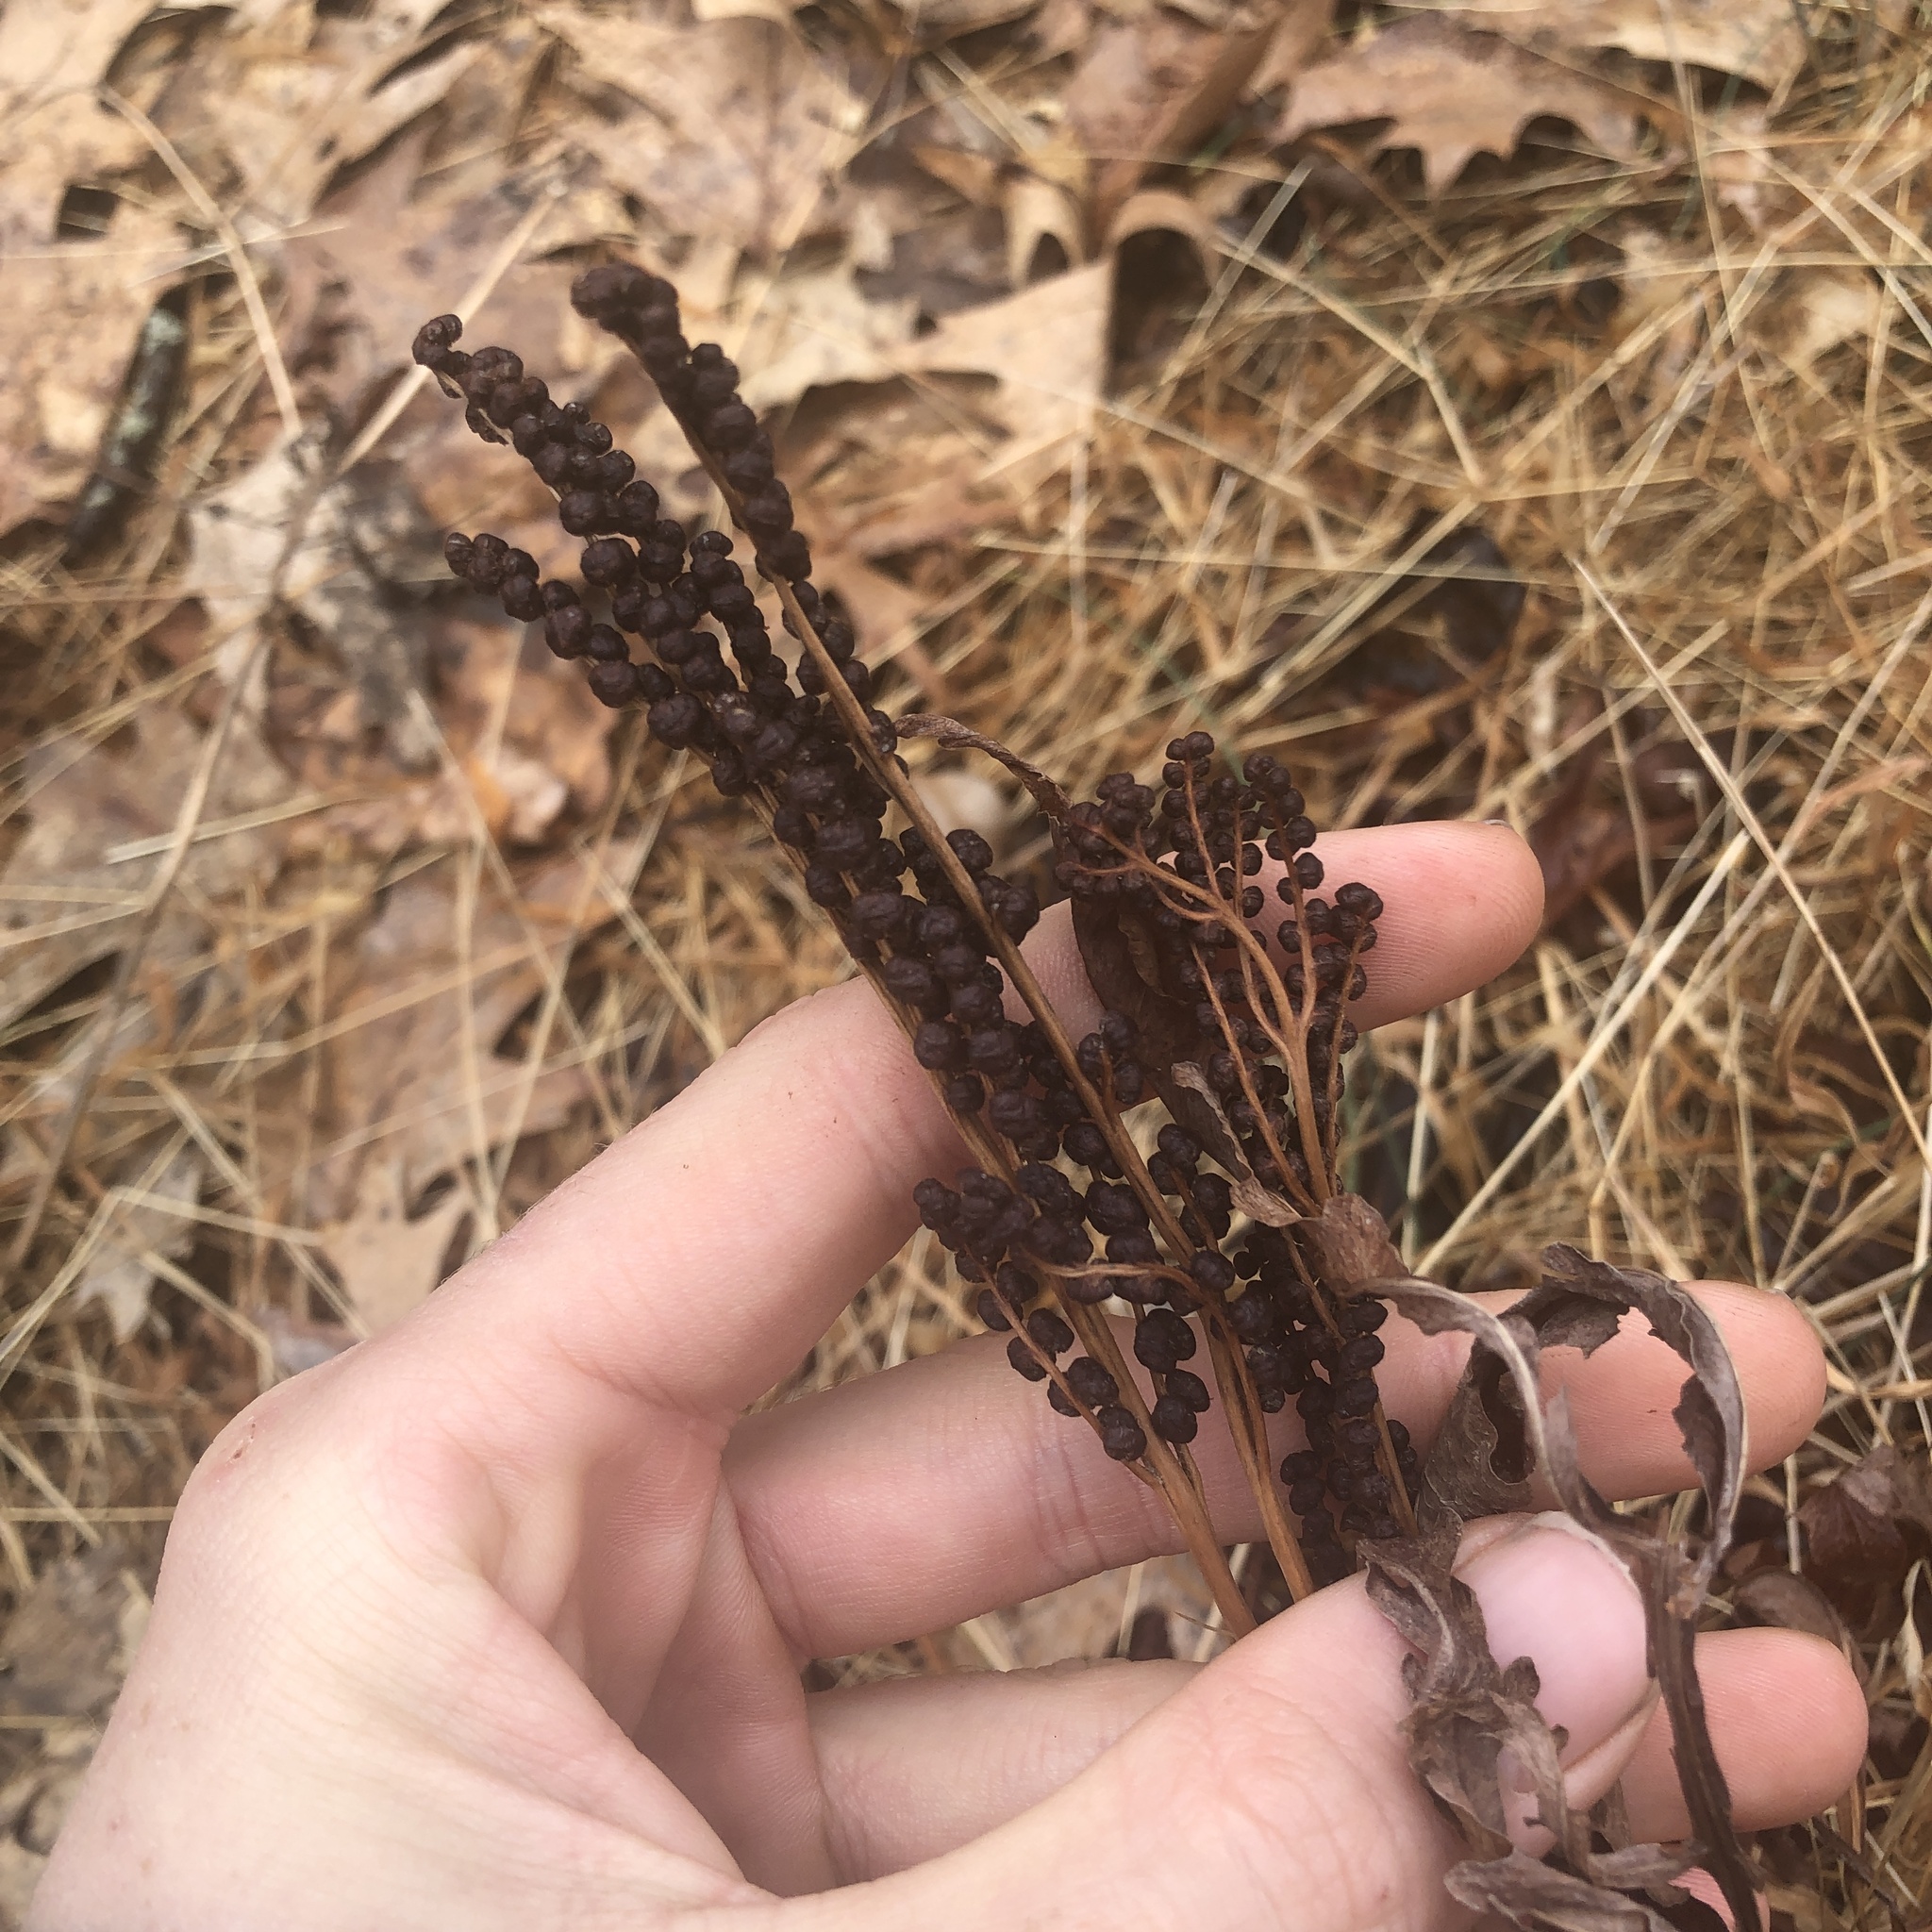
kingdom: Plantae
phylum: Tracheophyta
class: Polypodiopsida
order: Polypodiales
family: Onocleaceae
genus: Onoclea
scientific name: Onoclea sensibilis
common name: Sensitive fern
